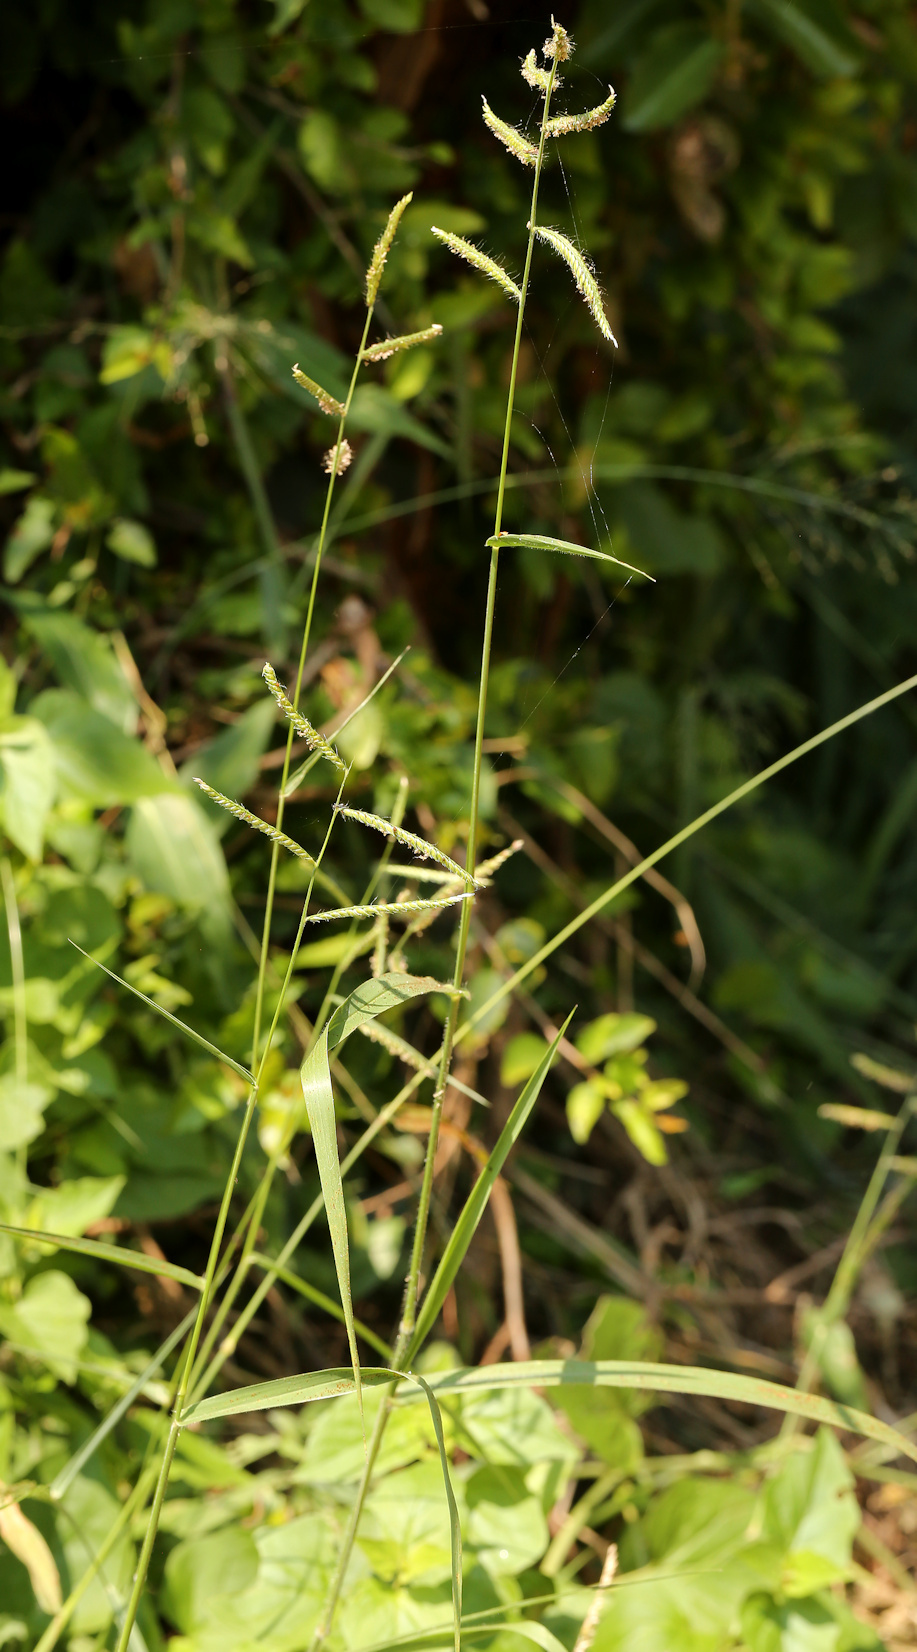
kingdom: Plantae
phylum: Tracheophyta
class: Liliopsida
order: Poales
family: Poaceae
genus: Urochloa
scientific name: Urochloa trichopus
